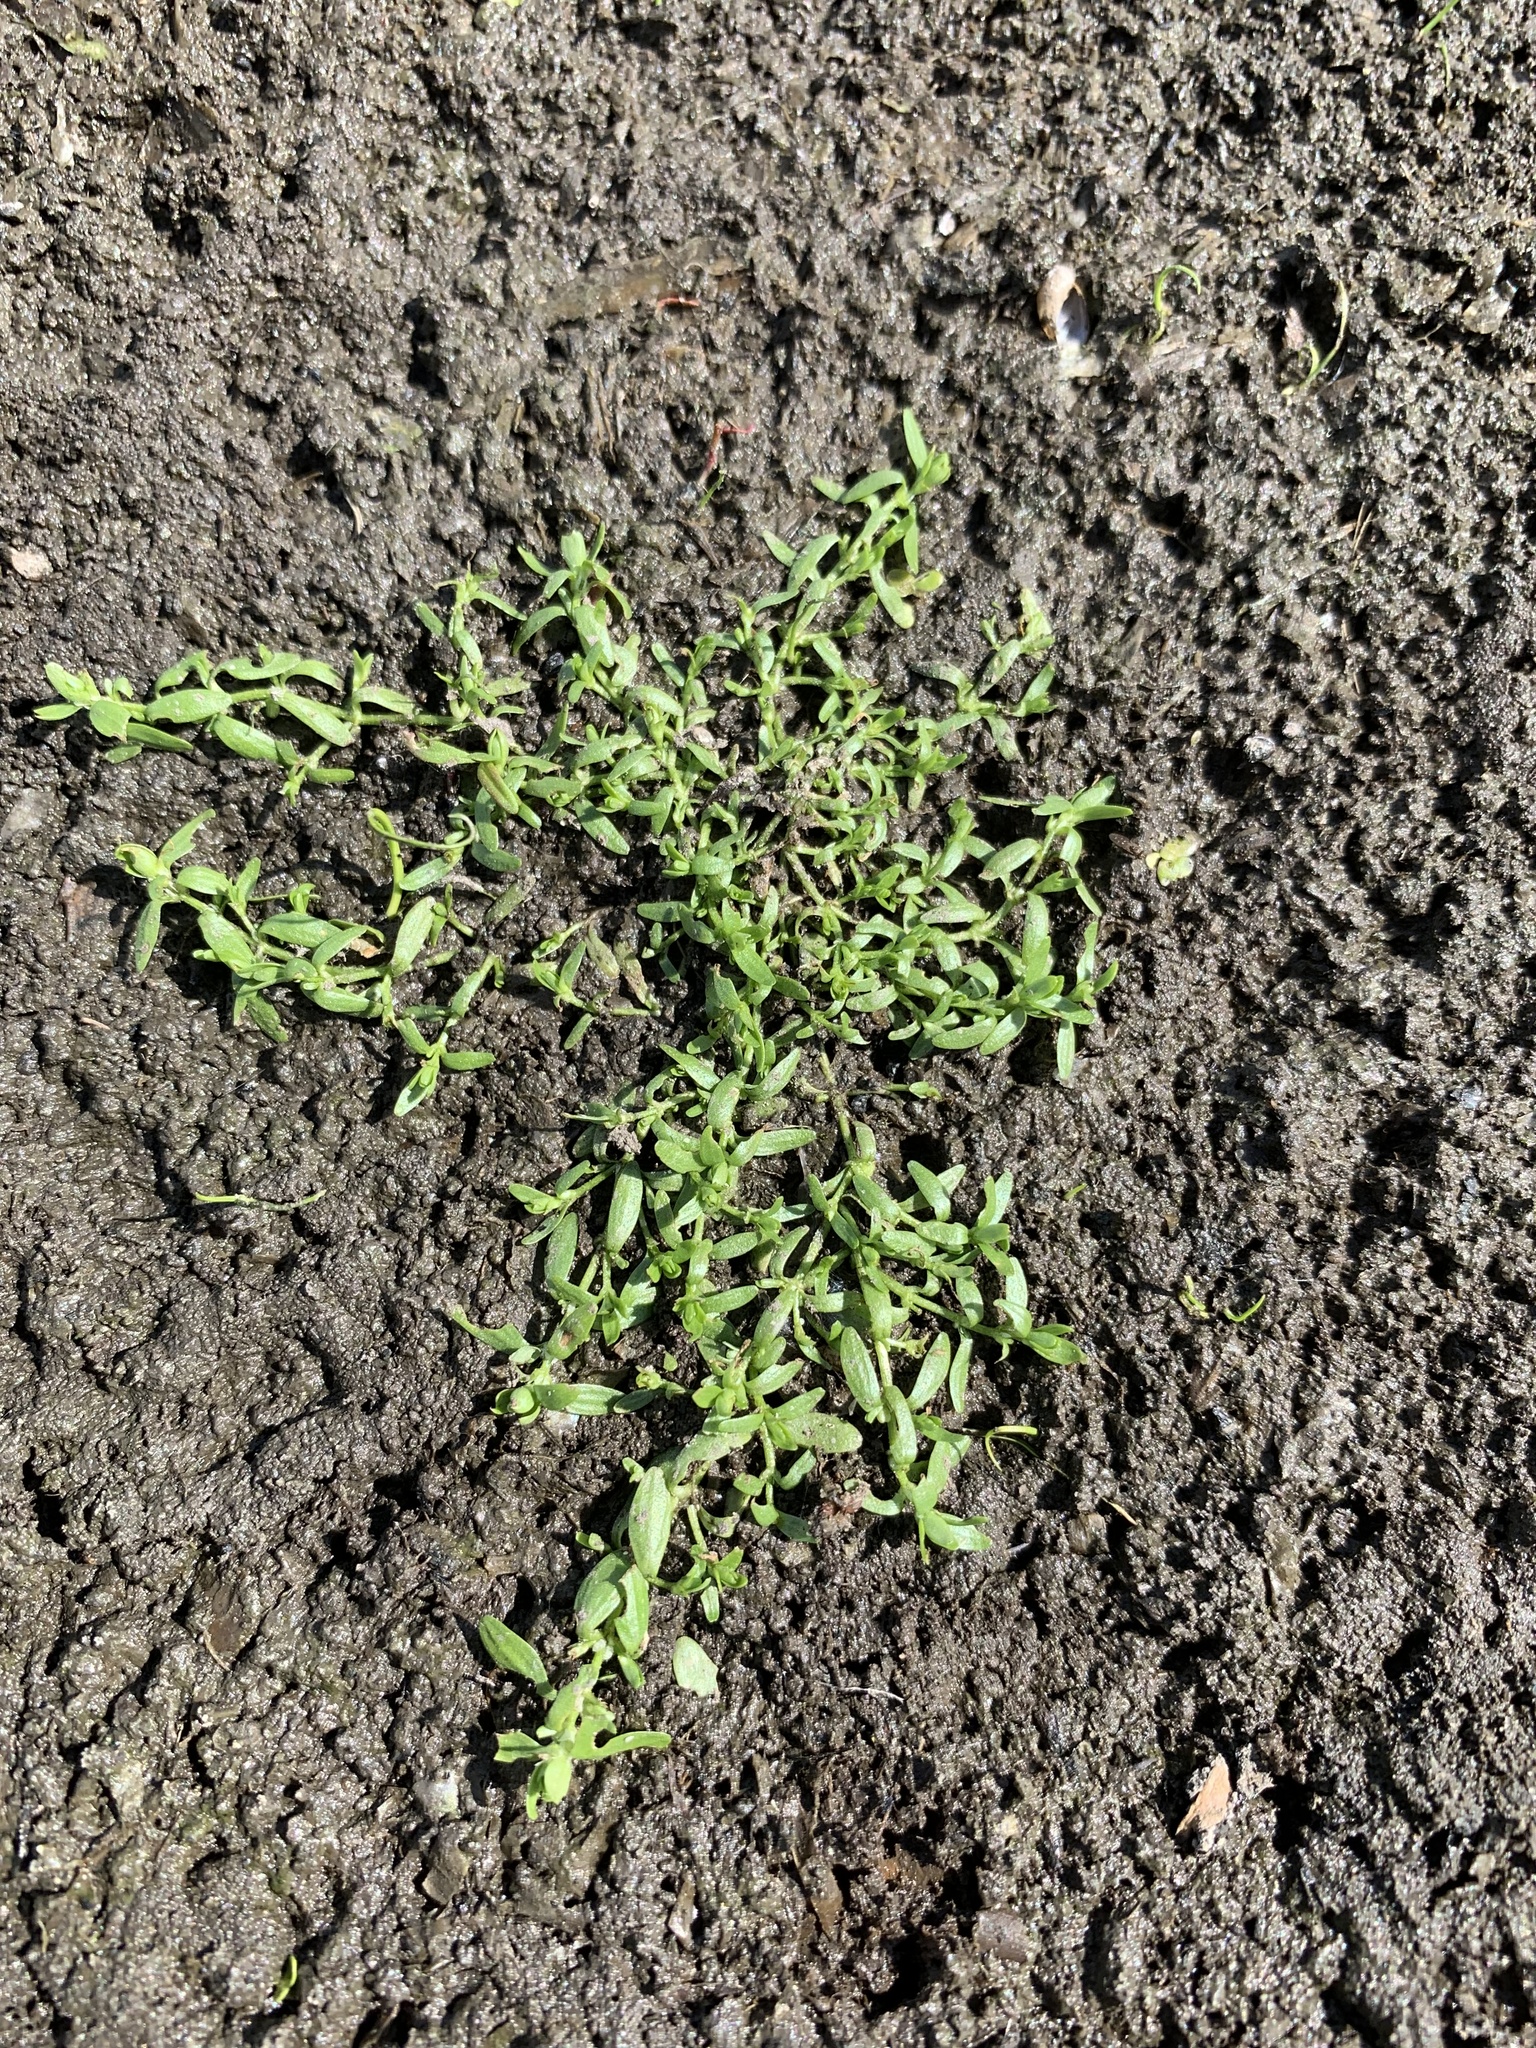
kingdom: Plantae
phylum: Tracheophyta
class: Magnoliopsida
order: Lamiales
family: Plantaginaceae
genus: Callitriche
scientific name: Callitriche palustris
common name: Spring water-starwort
